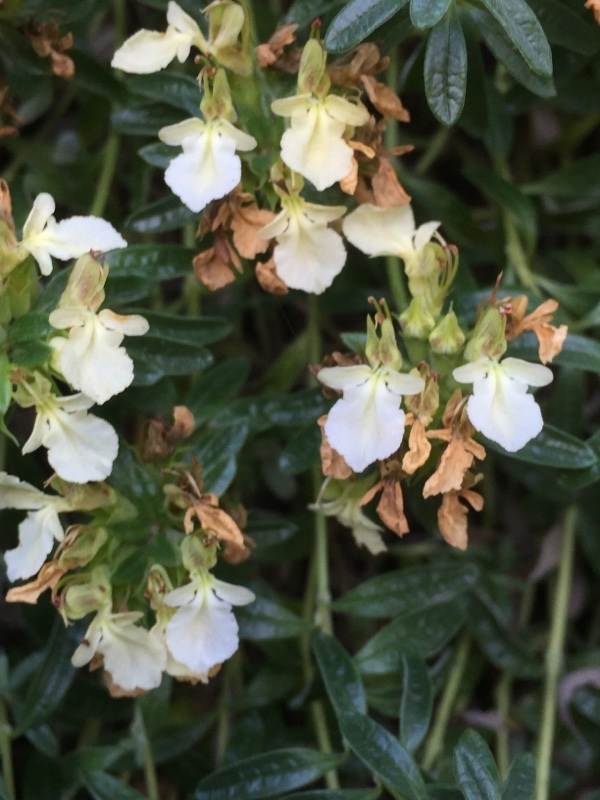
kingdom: Plantae
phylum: Tracheophyta
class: Magnoliopsida
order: Lamiales
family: Lamiaceae
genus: Teucrium
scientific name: Teucrium montanum
